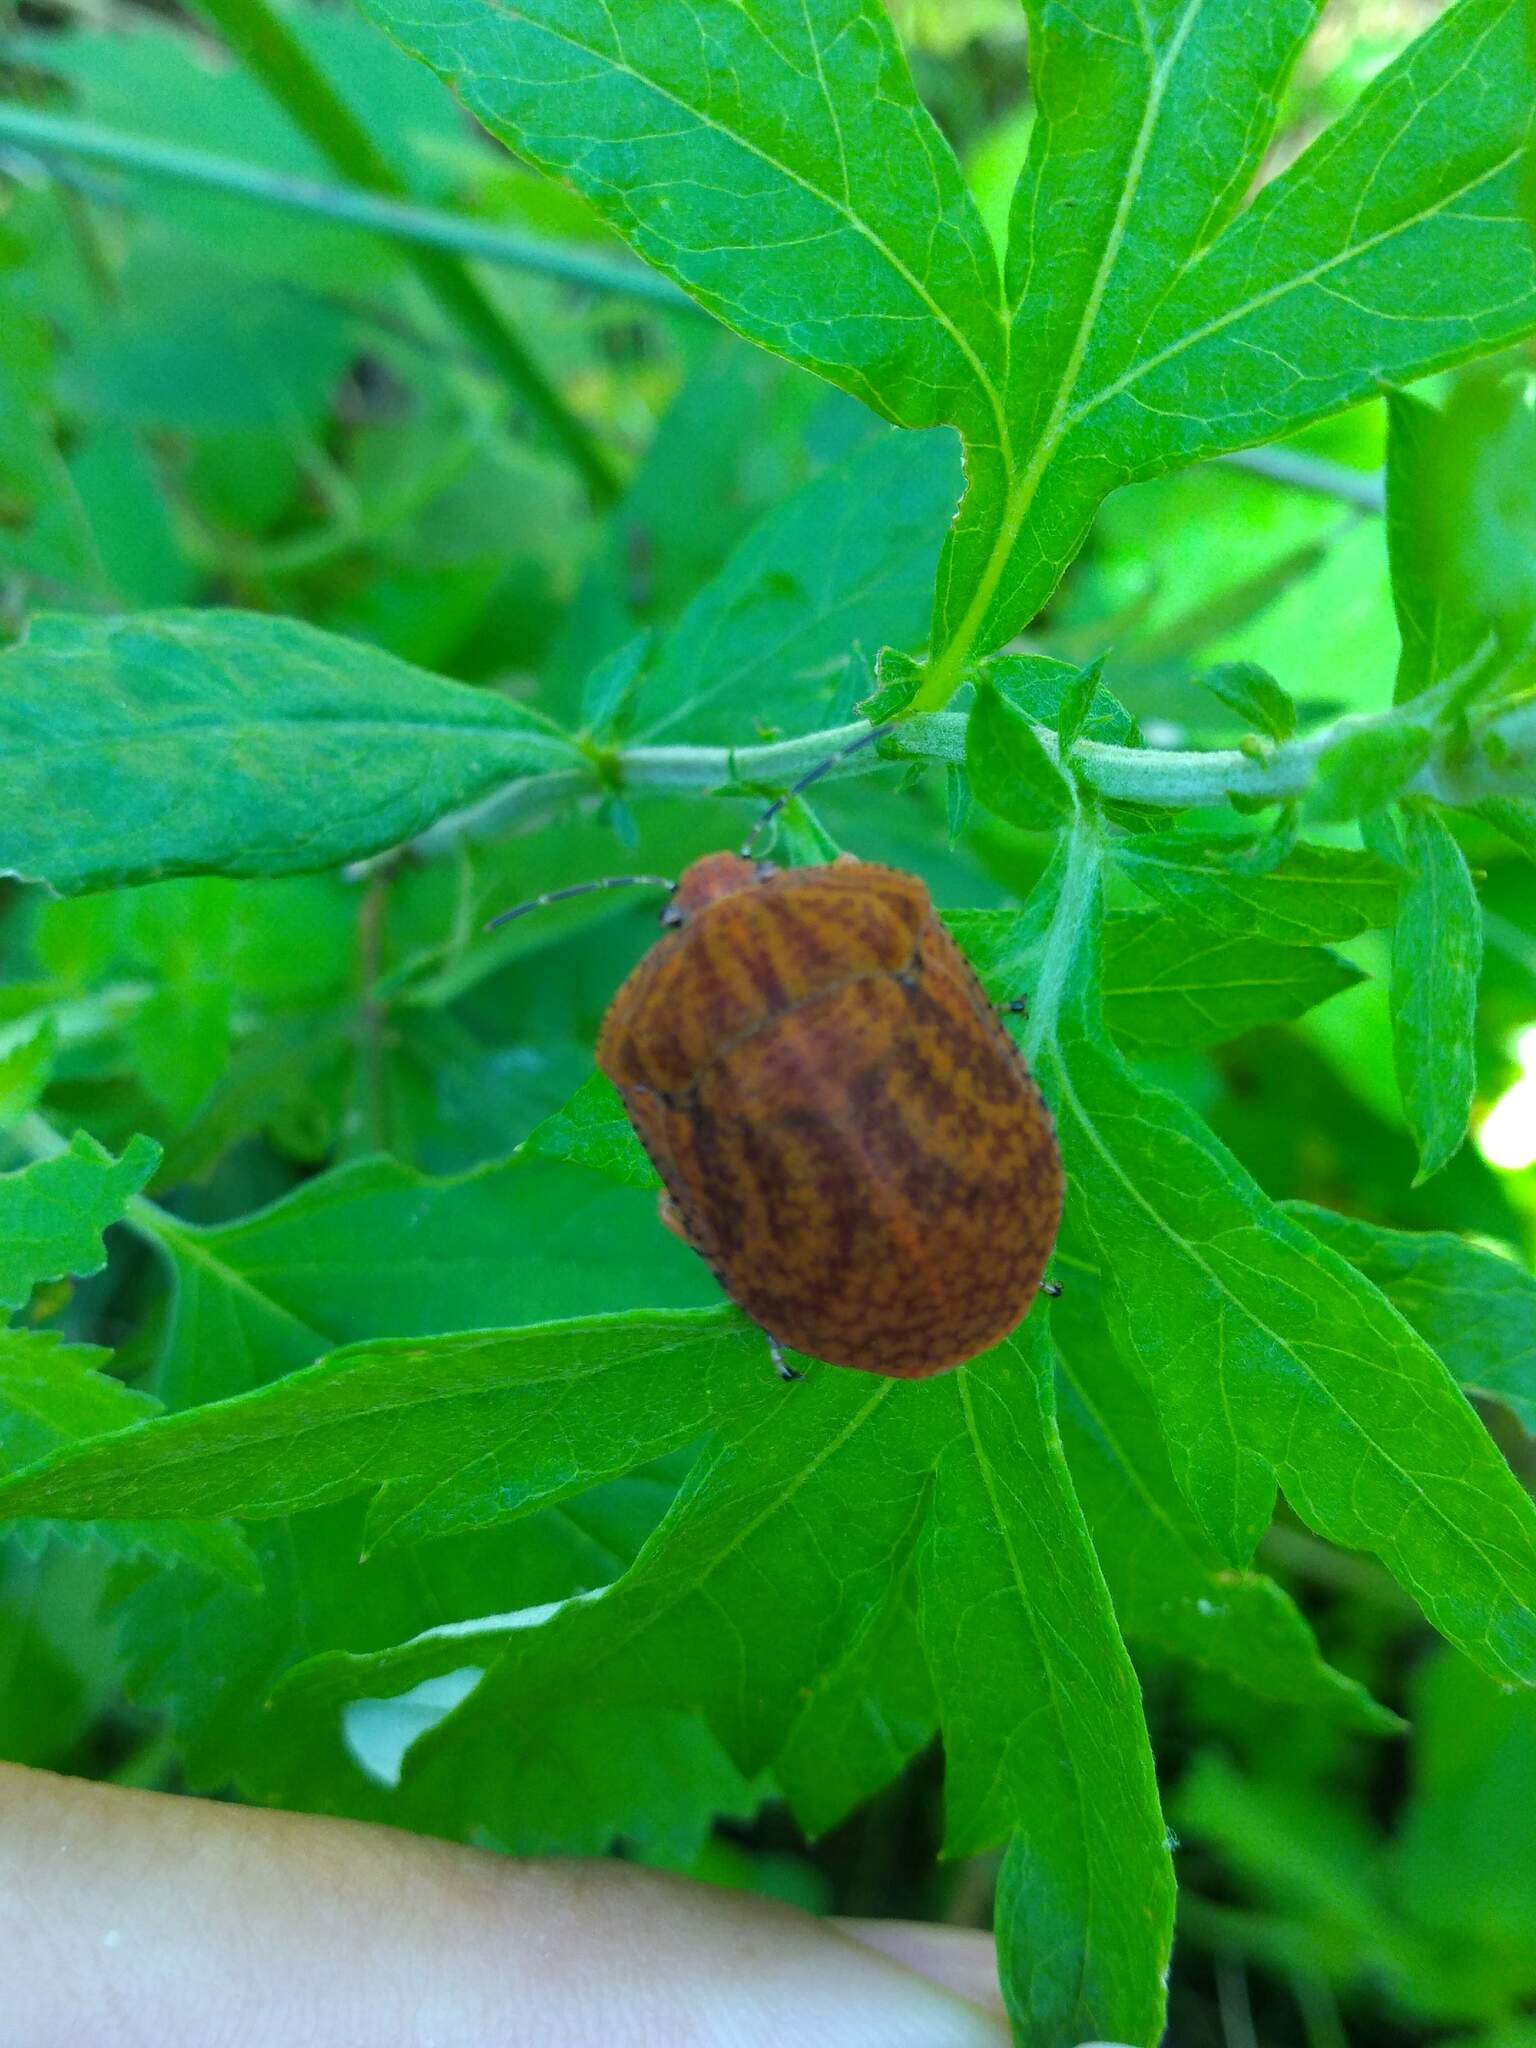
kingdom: Animalia
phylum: Arthropoda
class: Insecta
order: Hemiptera
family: Scutelleridae
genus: Tetyra
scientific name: Tetyra
